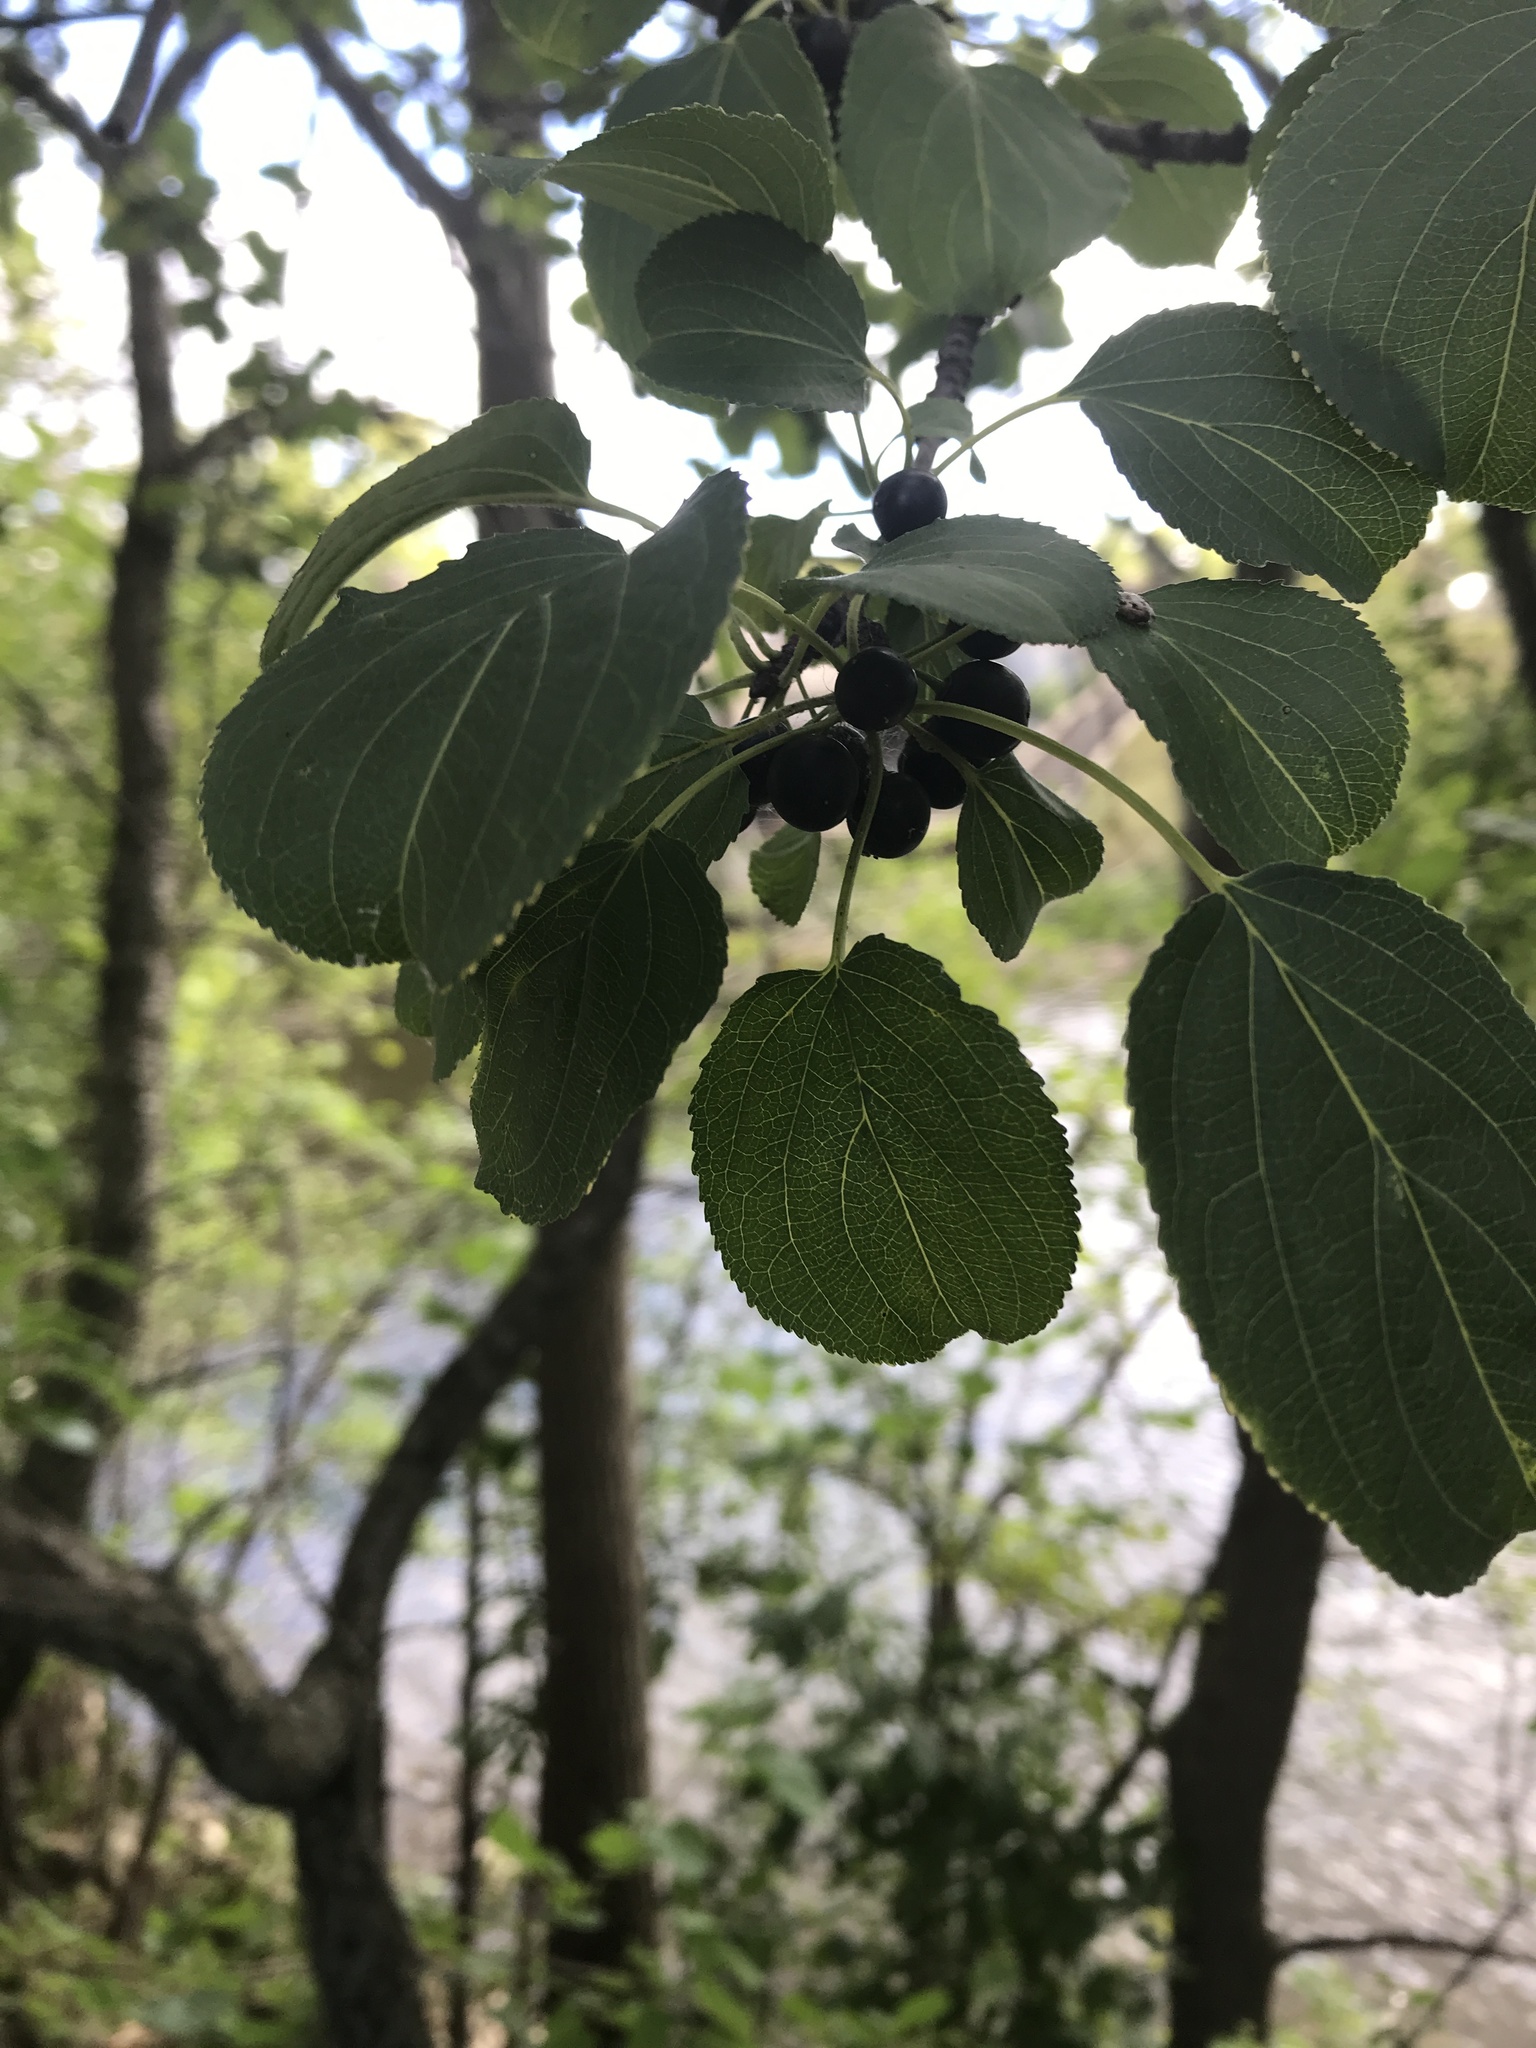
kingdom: Plantae
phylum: Tracheophyta
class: Magnoliopsida
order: Rosales
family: Rhamnaceae
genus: Rhamnus
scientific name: Rhamnus cathartica
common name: Common buckthorn
